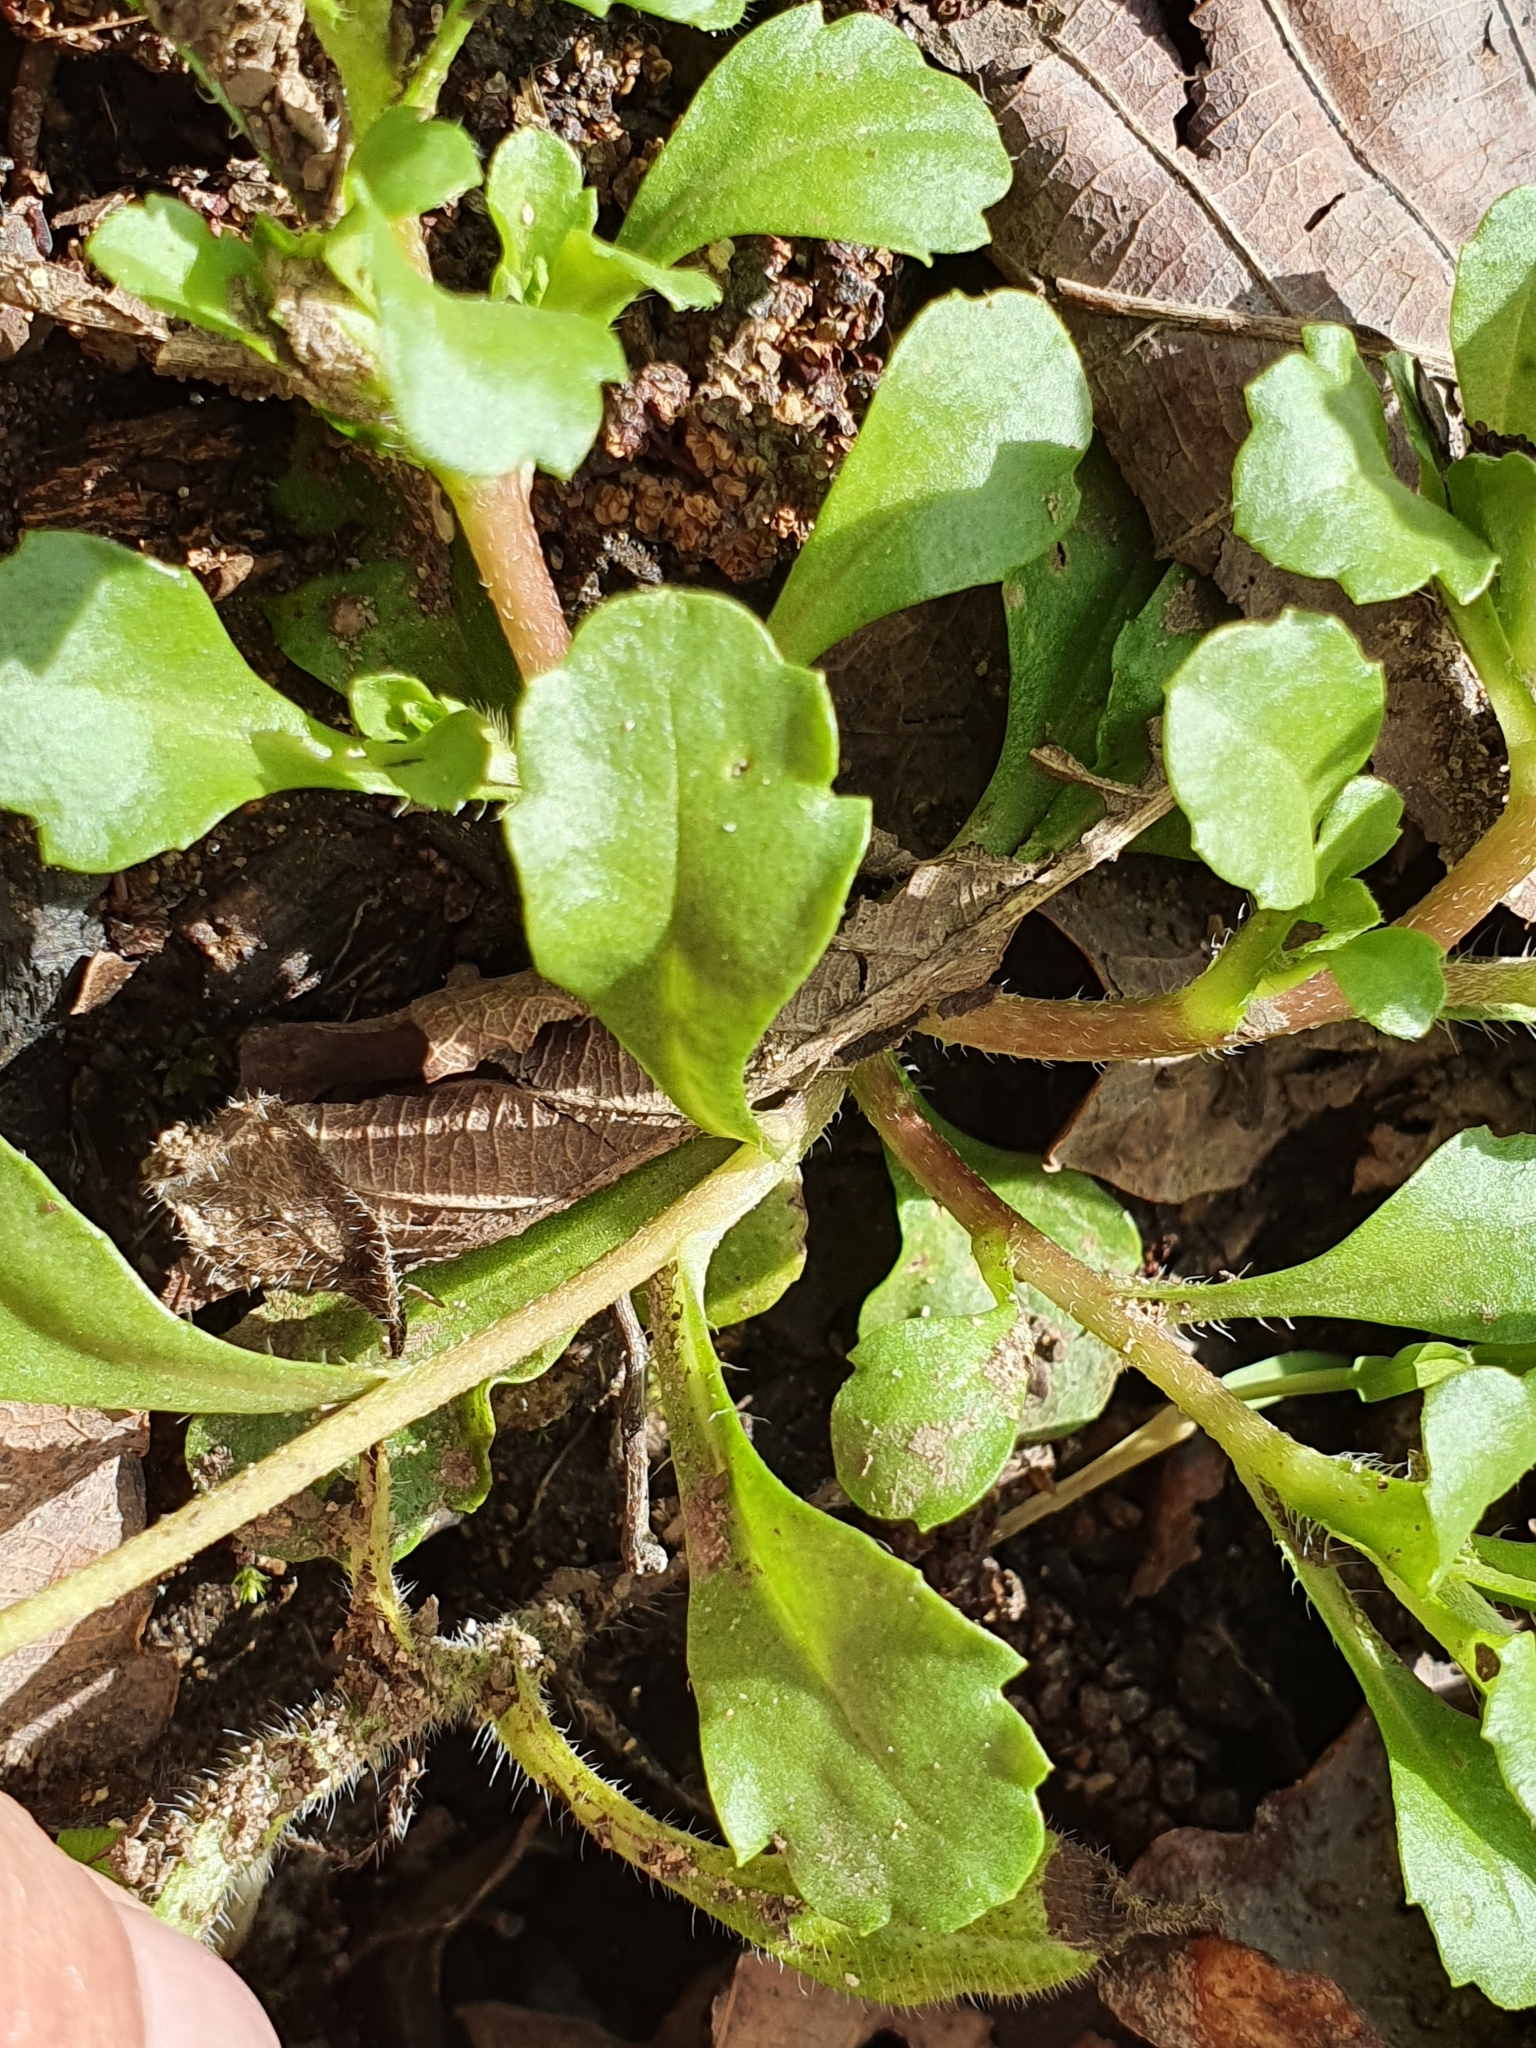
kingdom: Plantae
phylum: Tracheophyta
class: Magnoliopsida
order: Asterales
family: Asteraceae
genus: Bellis
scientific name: Bellis annua
